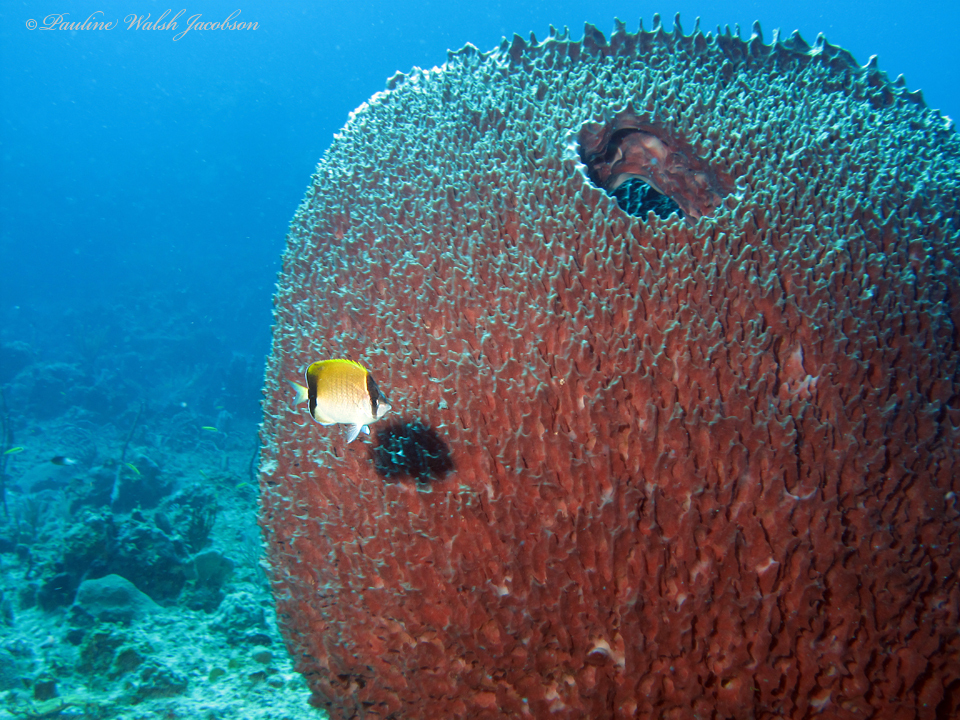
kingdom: Animalia
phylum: Chordata
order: Perciformes
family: Chaetodontidae
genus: Chaetodon
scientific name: Chaetodon sedentarius
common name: Reef butterflyfish
